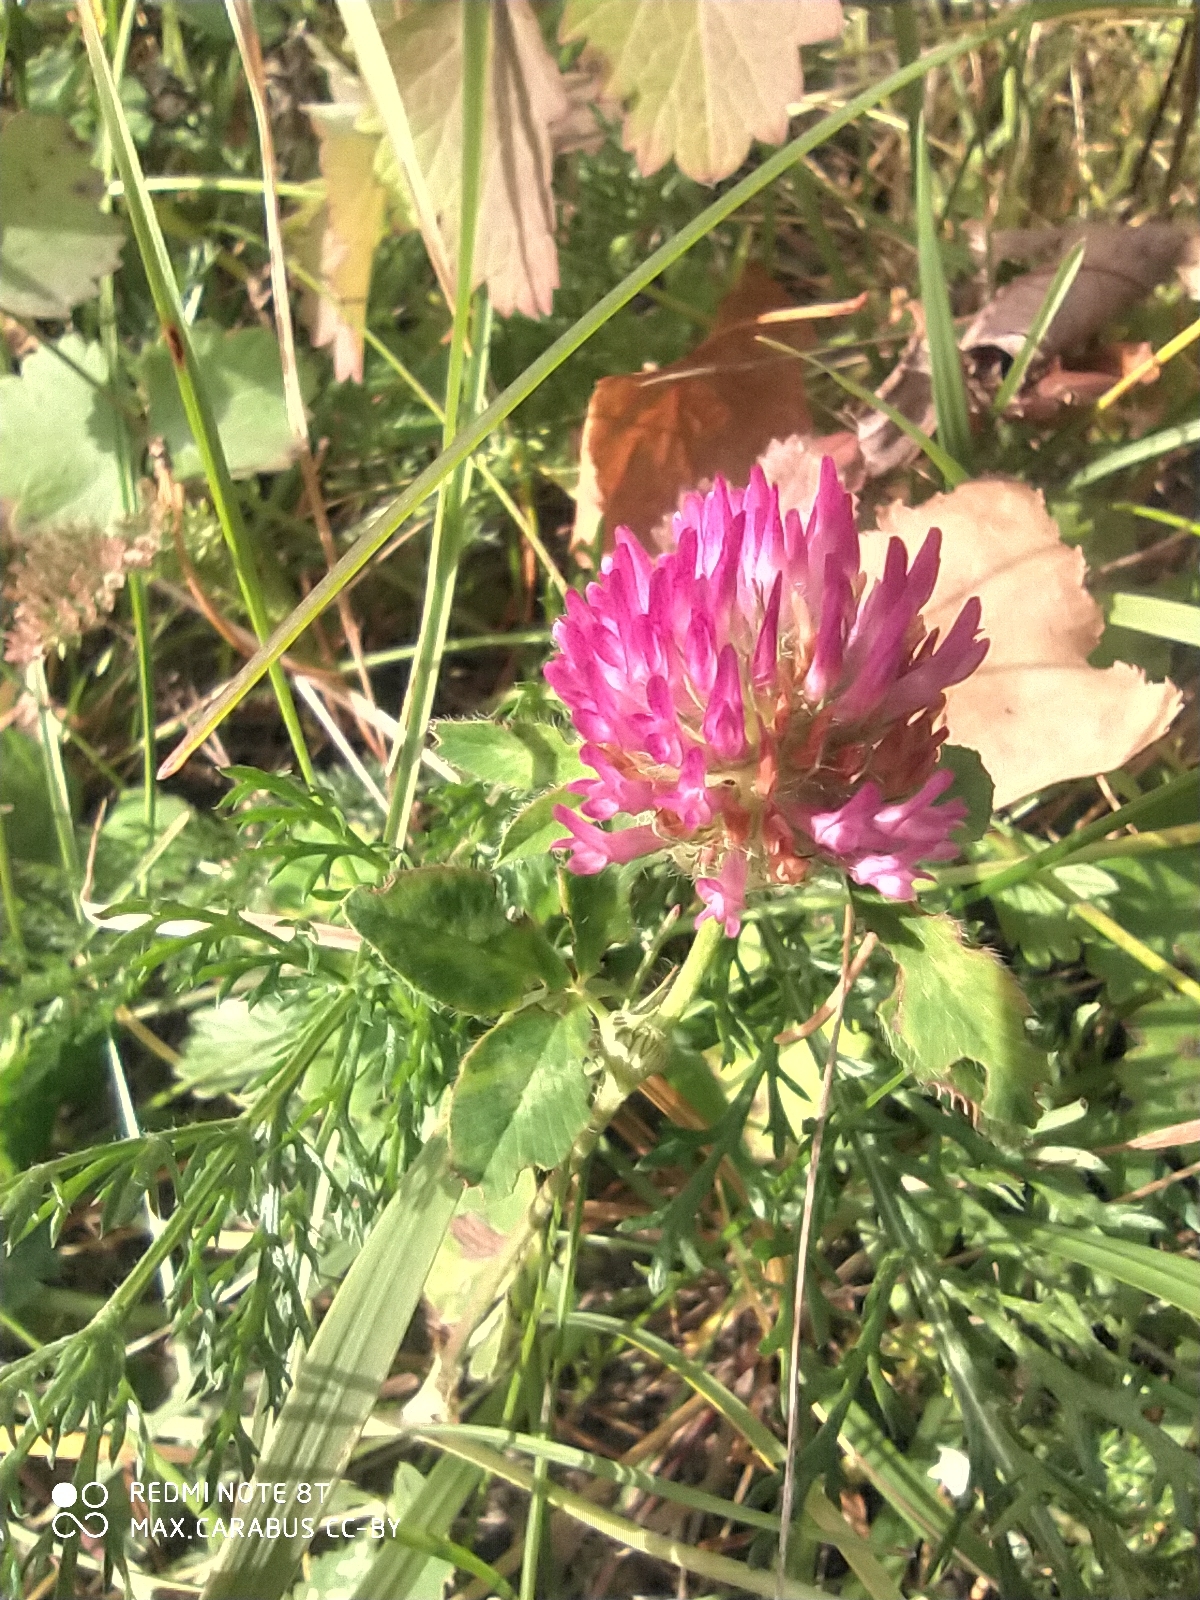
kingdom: Plantae
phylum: Tracheophyta
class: Magnoliopsida
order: Fabales
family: Fabaceae
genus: Trifolium
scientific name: Trifolium pratense
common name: Red clover
